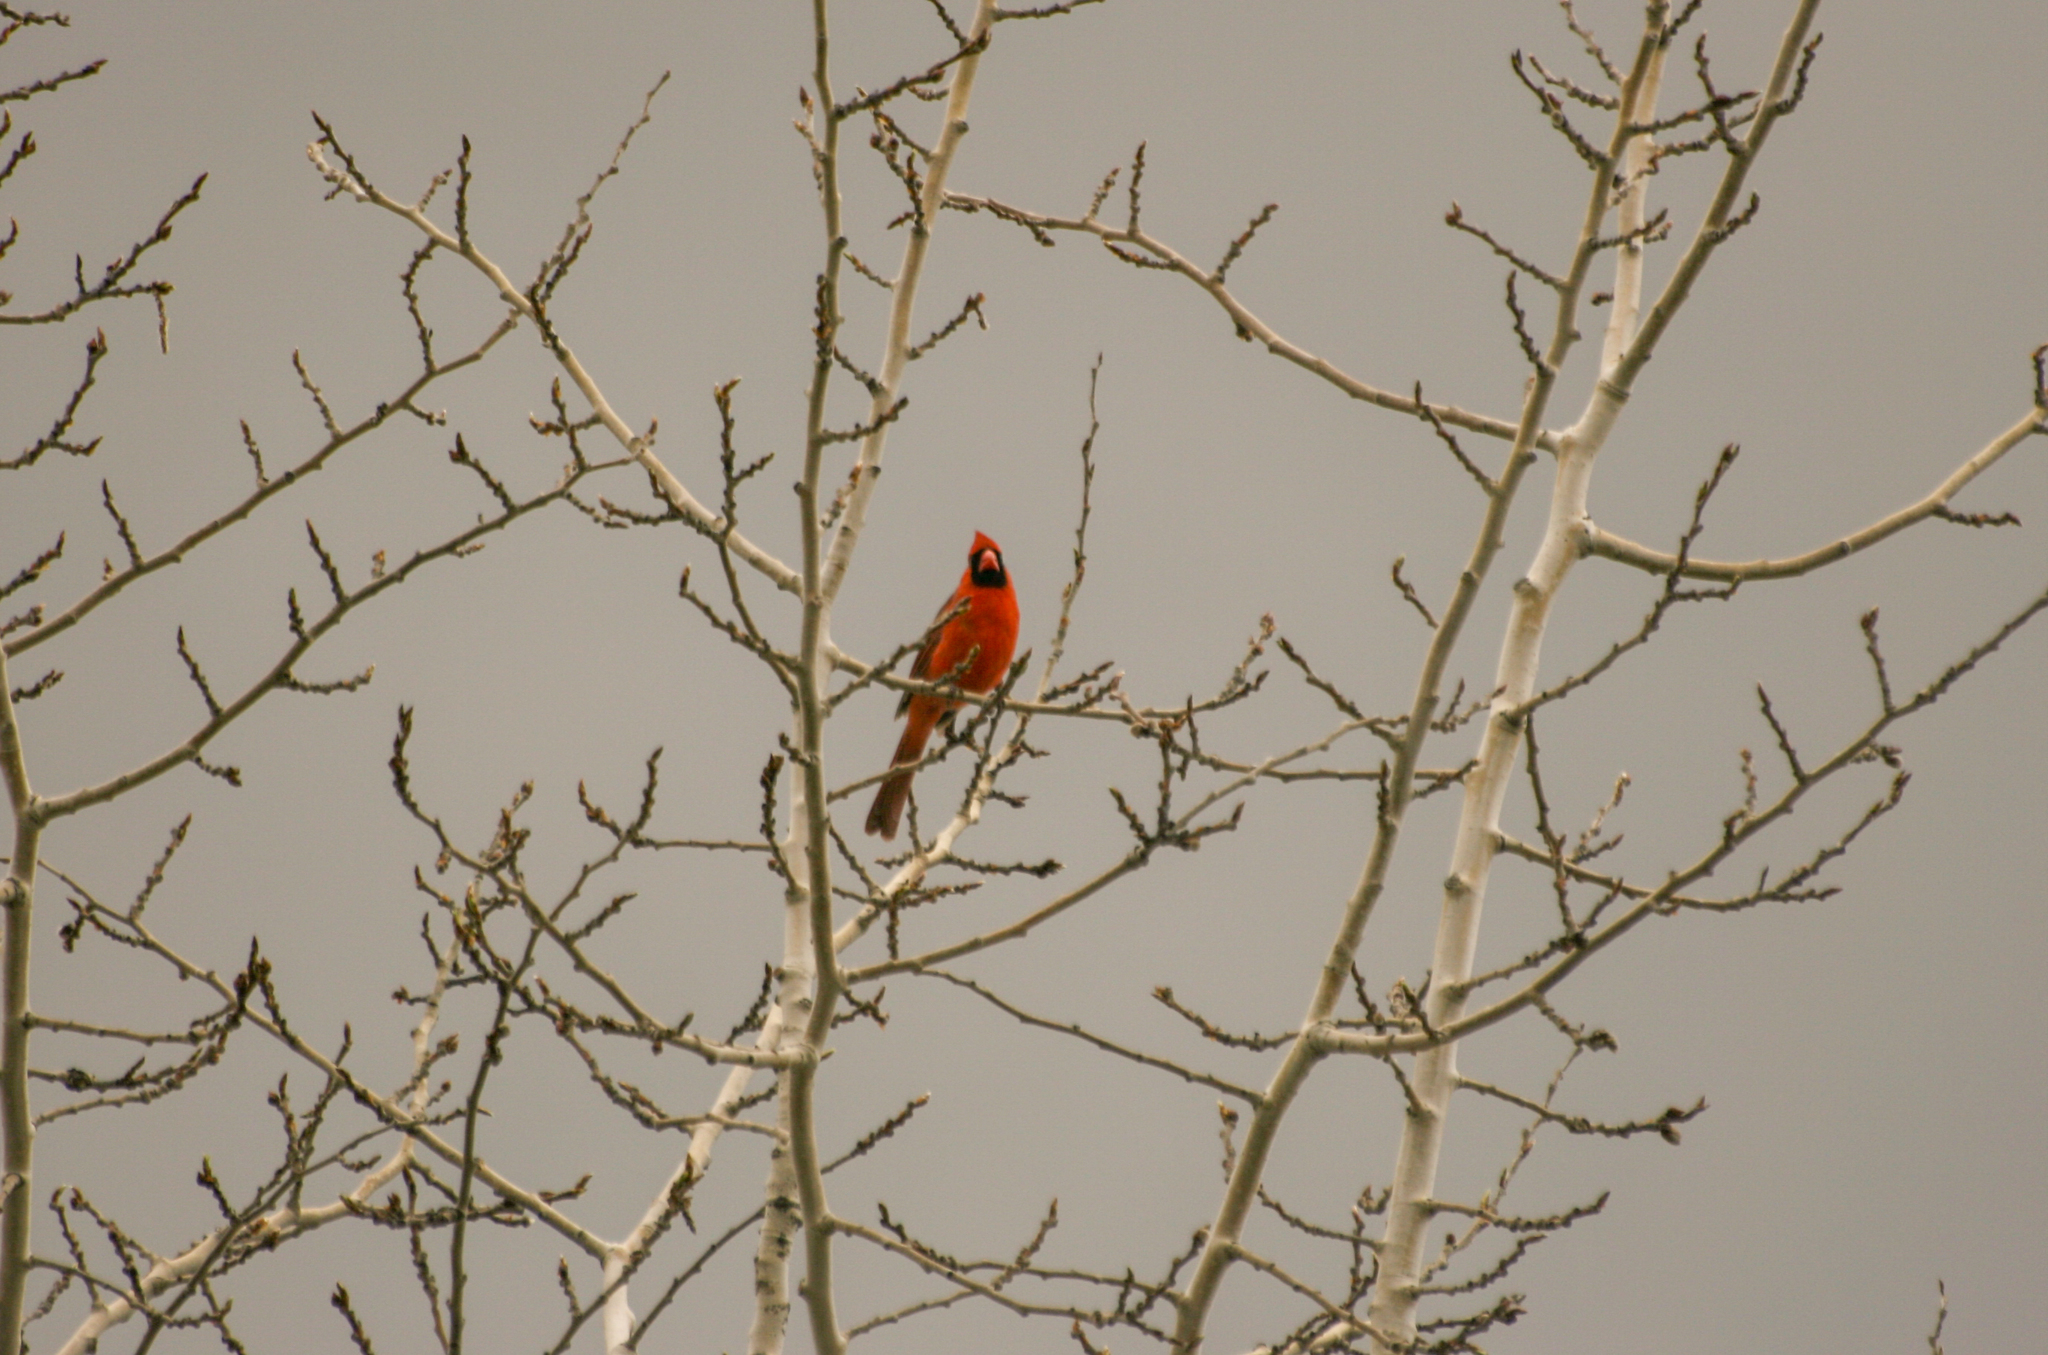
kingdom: Animalia
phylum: Chordata
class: Aves
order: Passeriformes
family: Cardinalidae
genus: Cardinalis
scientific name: Cardinalis cardinalis
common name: Northern cardinal
